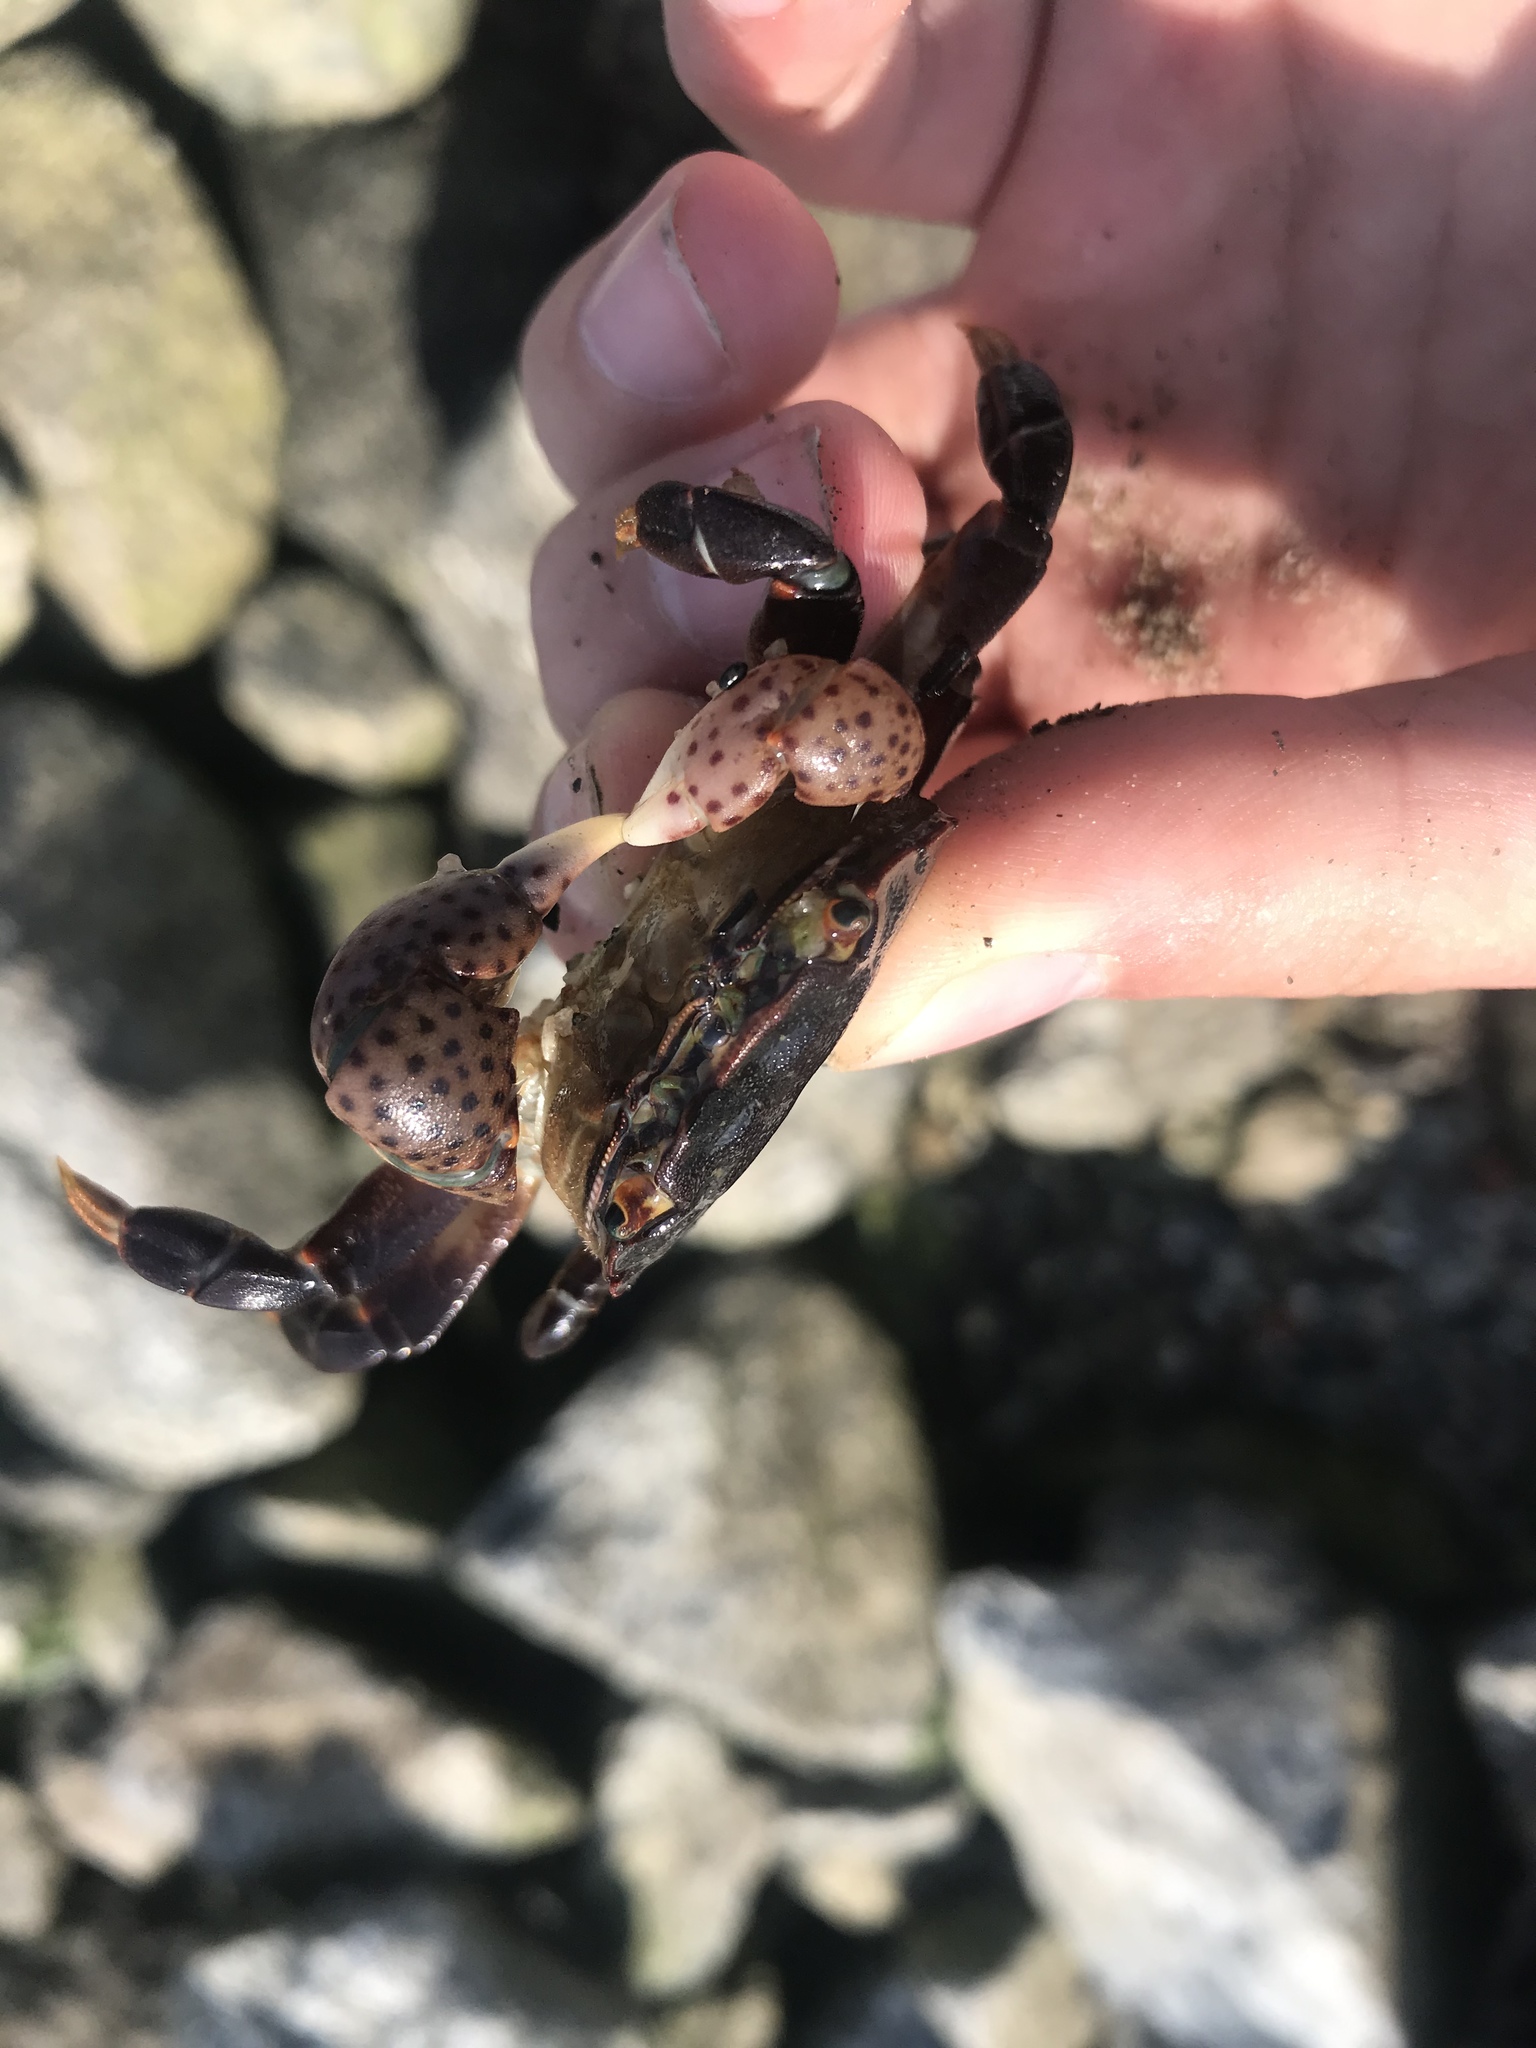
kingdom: Animalia
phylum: Arthropoda
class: Malacostraca
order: Decapoda
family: Varunidae
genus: Hemigrapsus
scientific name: Hemigrapsus nudus
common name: Purple shore crab
